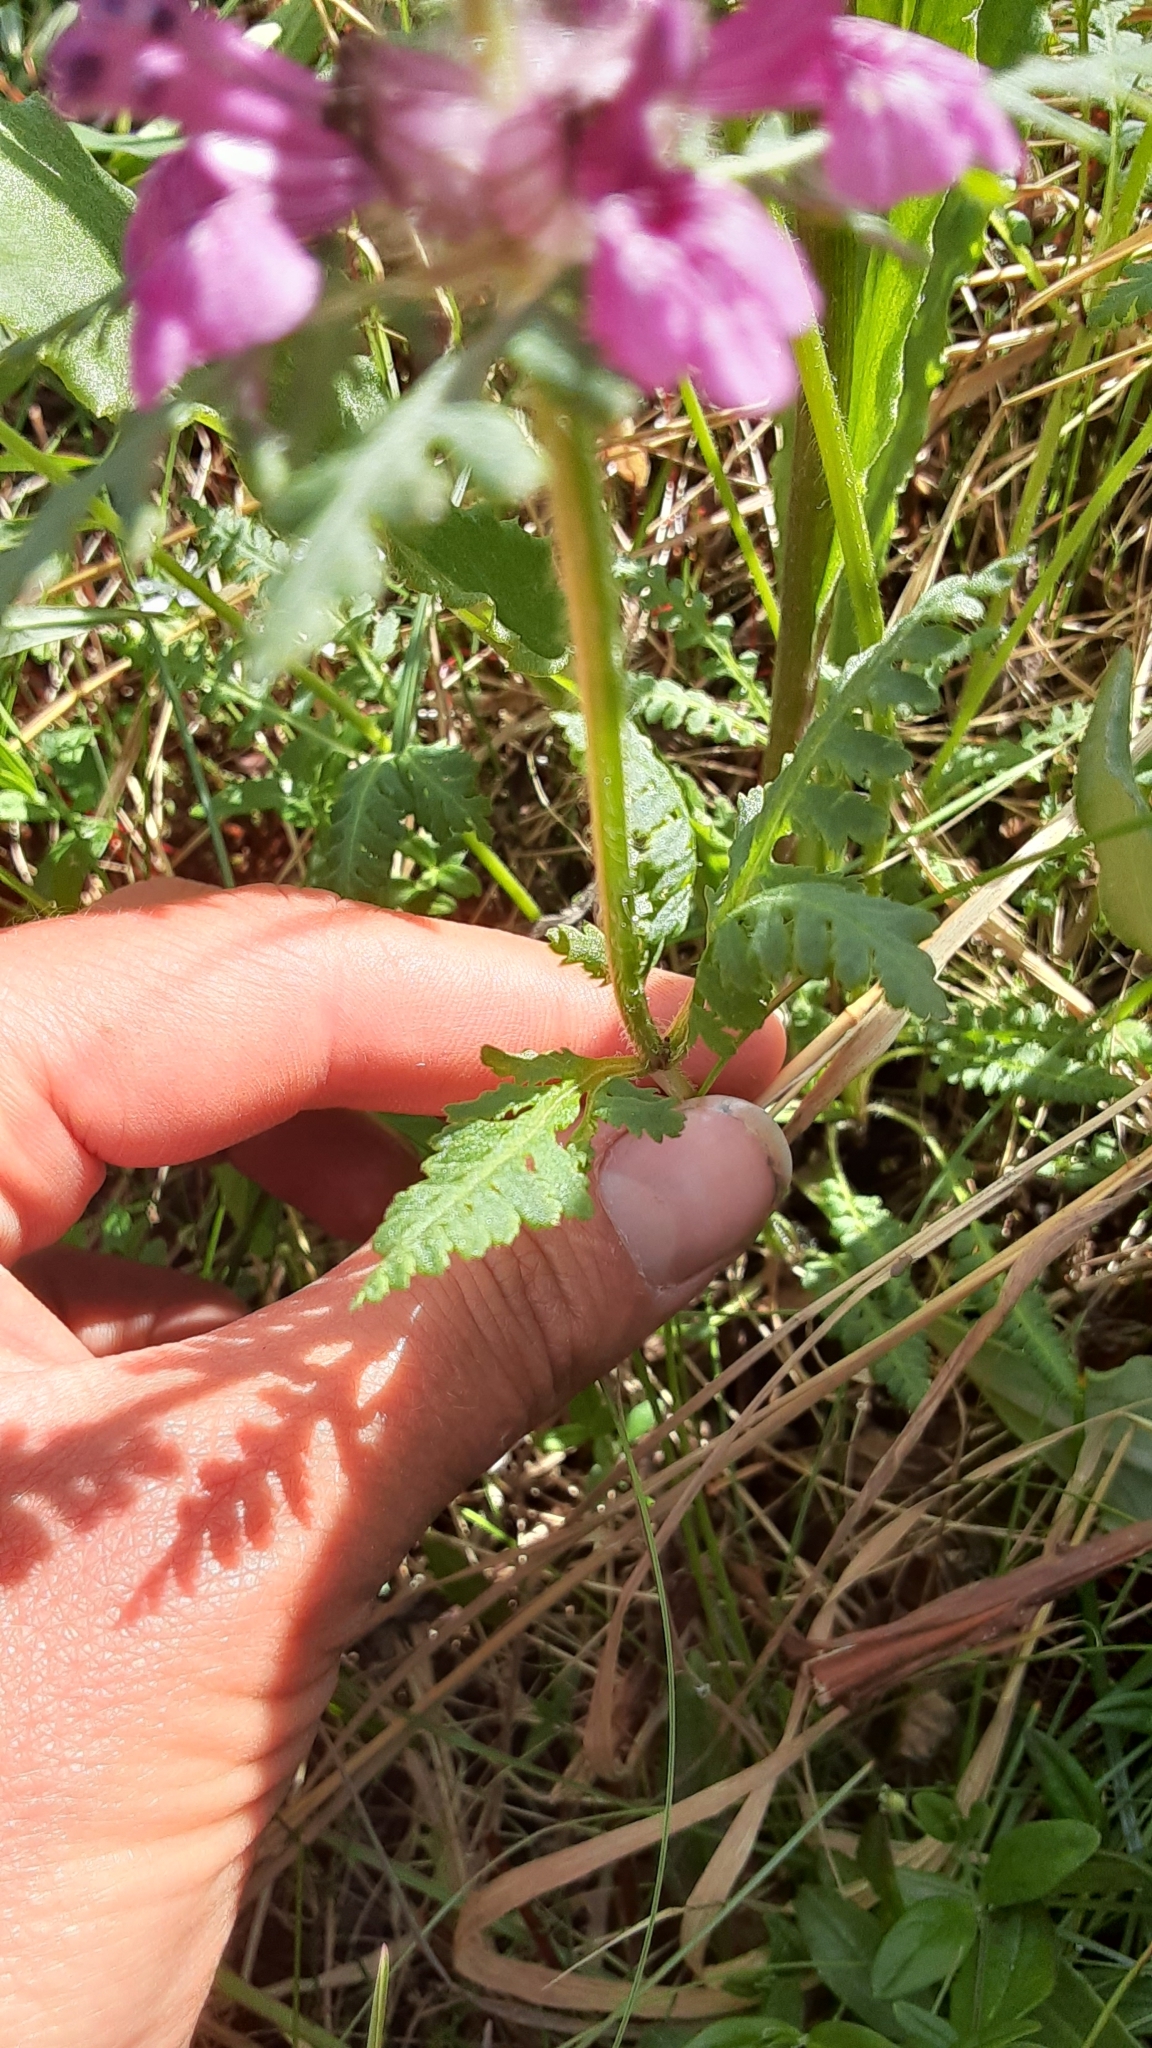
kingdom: Plantae
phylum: Tracheophyta
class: Magnoliopsida
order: Lamiales
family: Orobanchaceae
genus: Pedicularis
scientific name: Pedicularis verticillata
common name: Whorled lousewort
